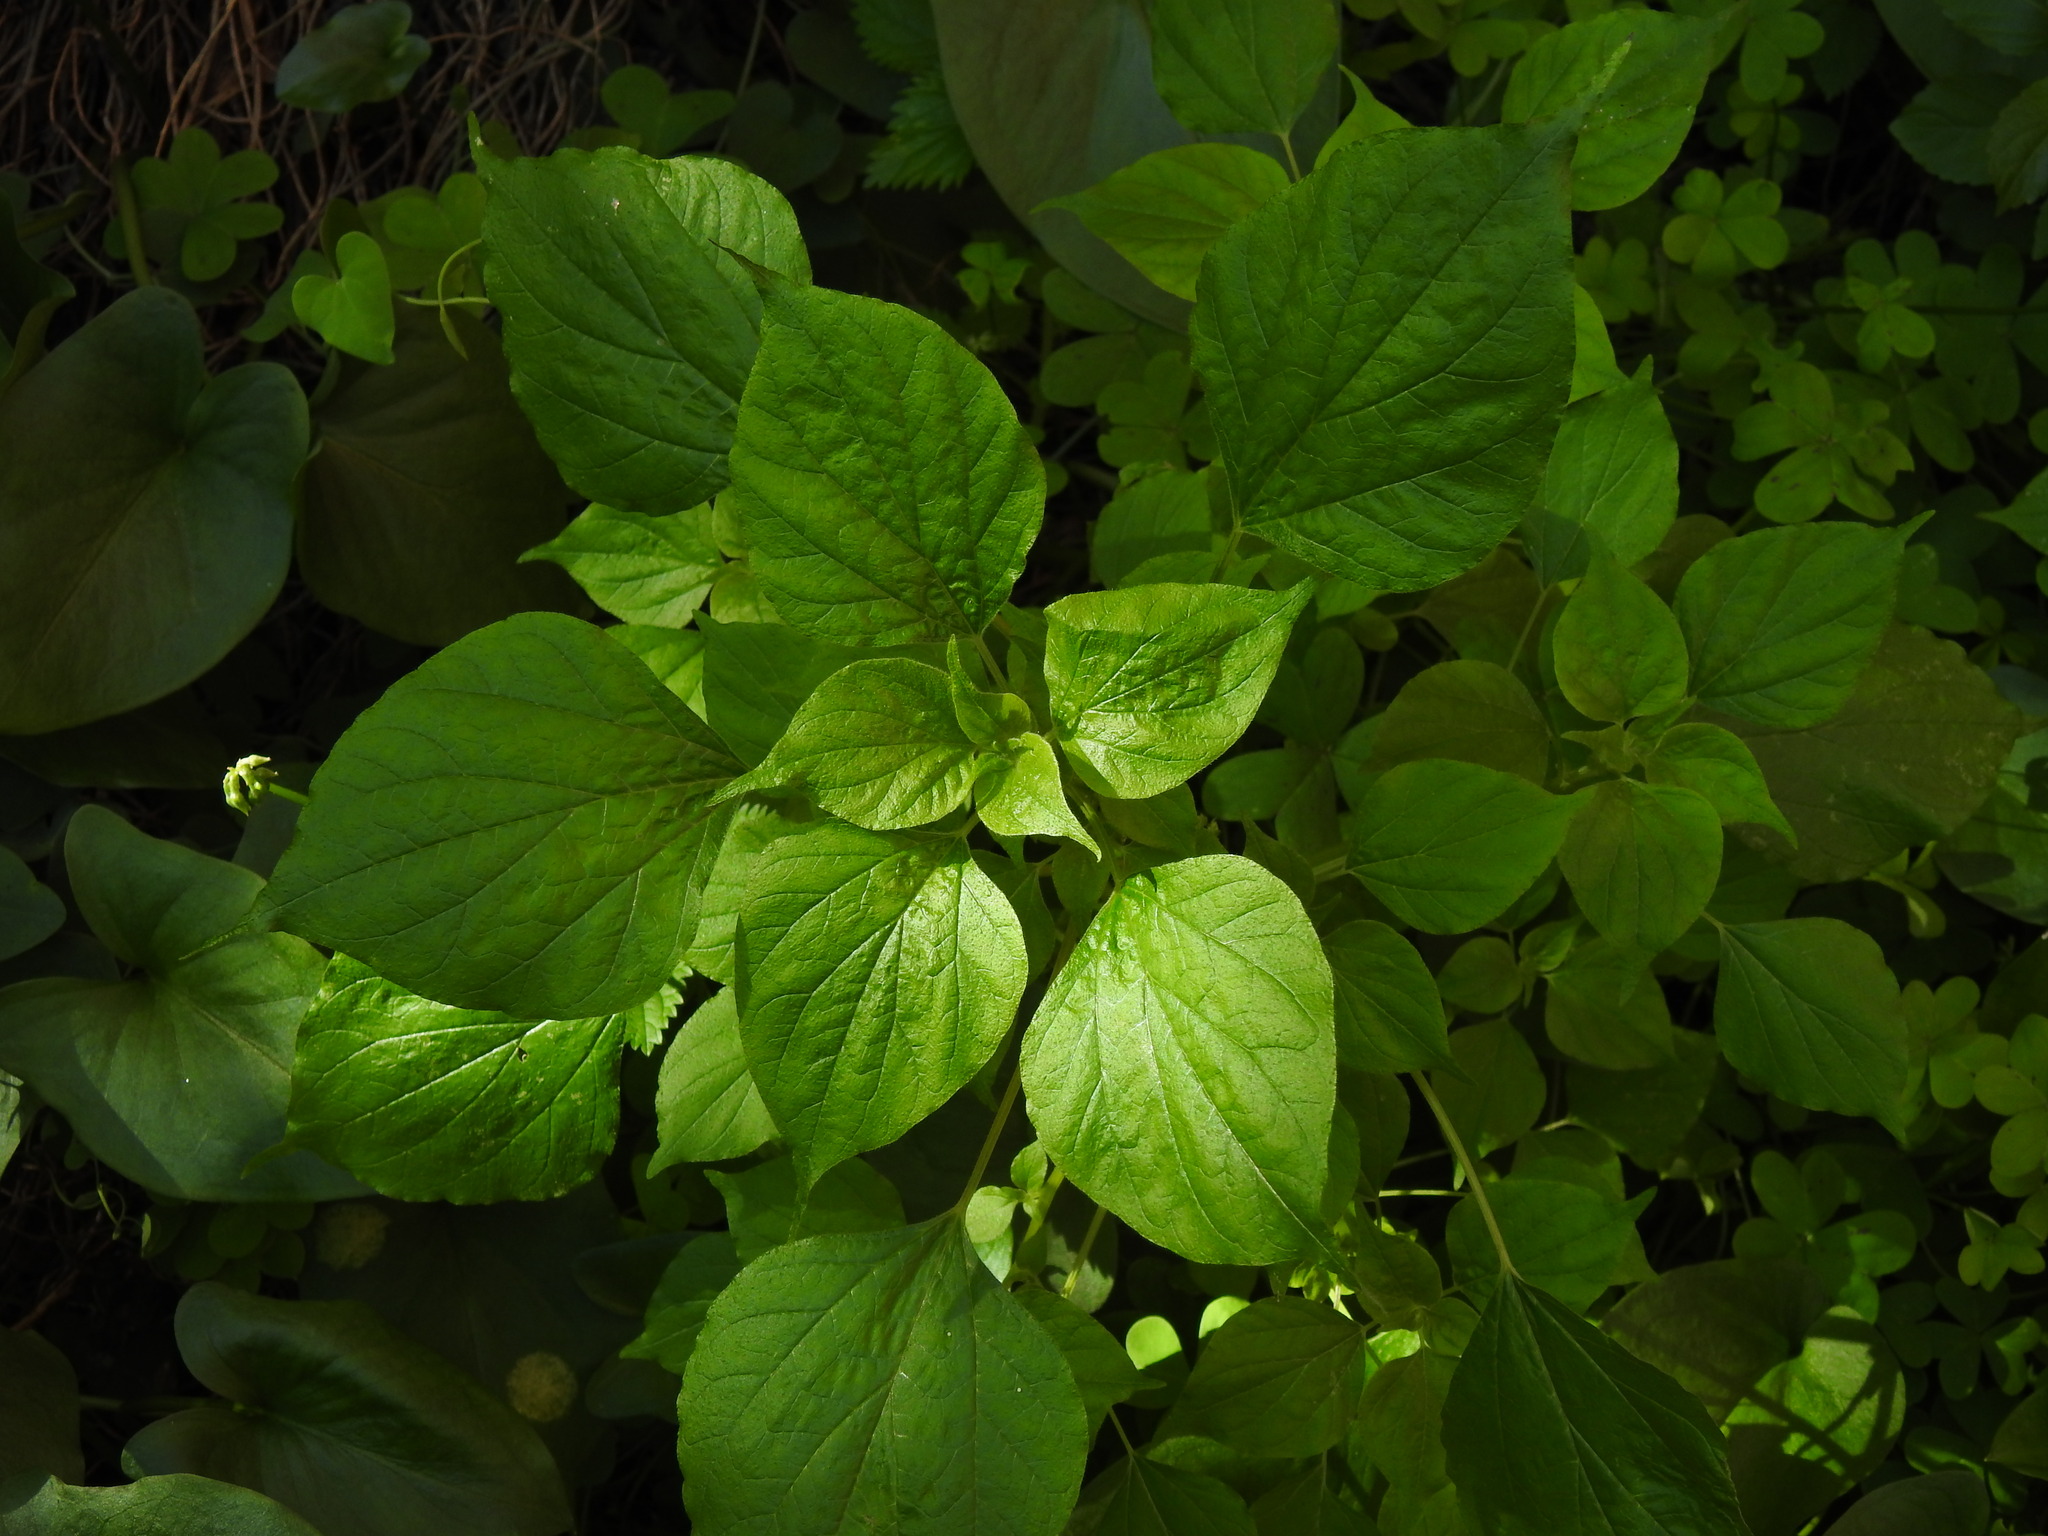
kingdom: Plantae
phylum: Tracheophyta
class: Magnoliopsida
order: Rosales
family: Urticaceae
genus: Parietaria
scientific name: Parietaria mauritanica
